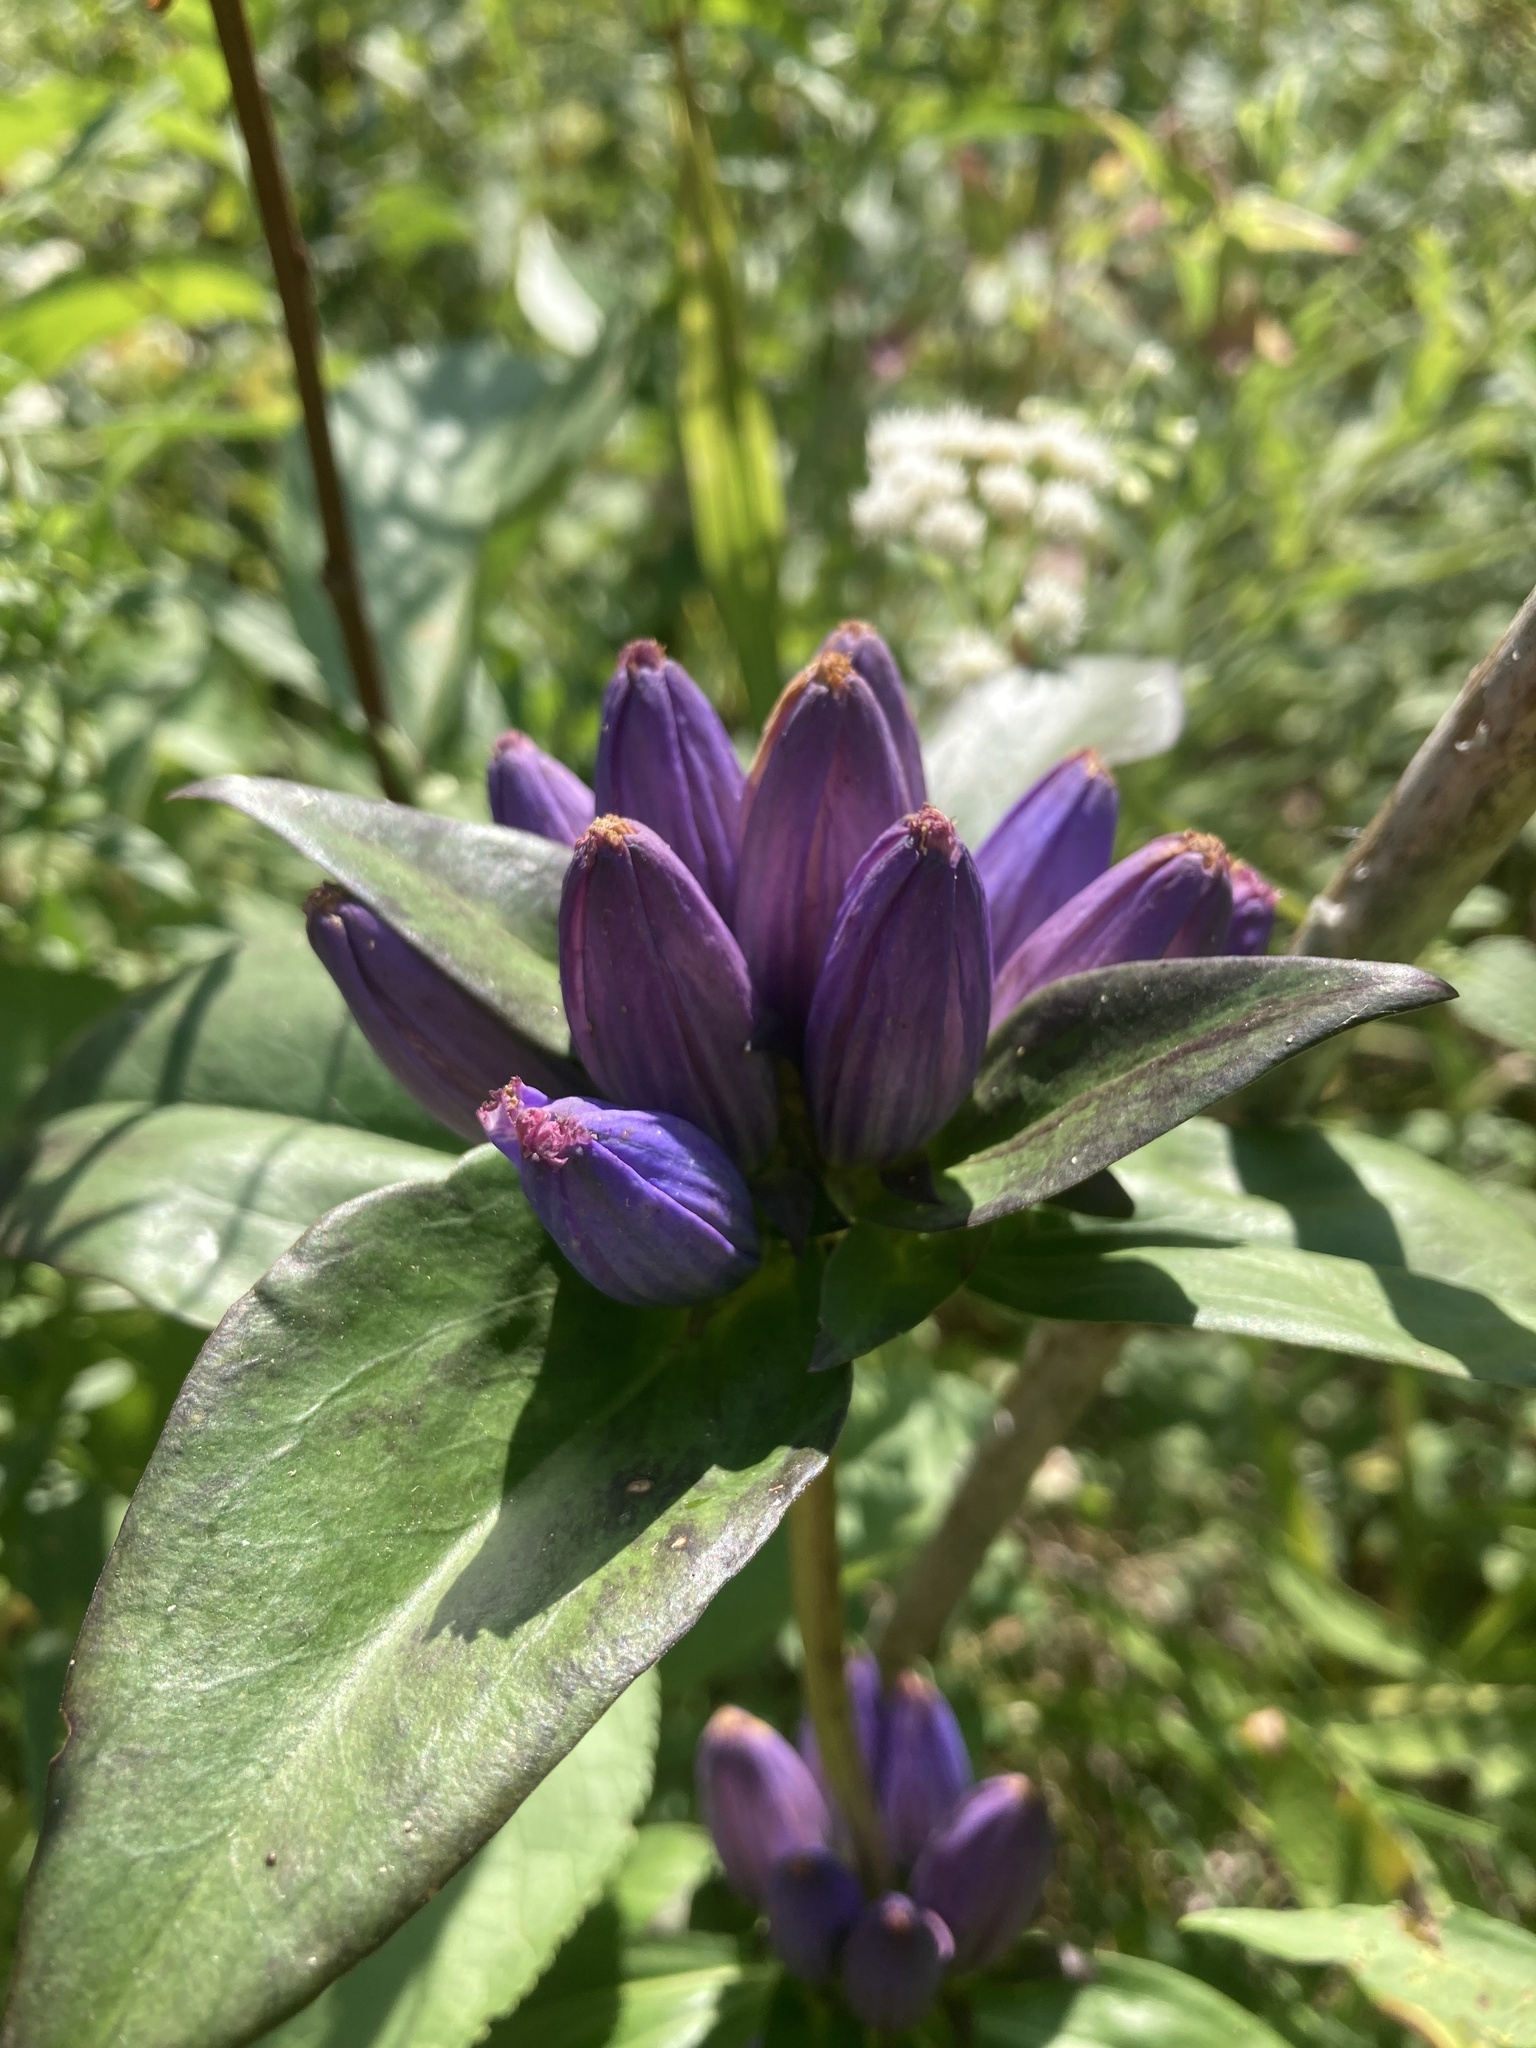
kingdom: Plantae
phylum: Tracheophyta
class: Magnoliopsida
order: Gentianales
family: Gentianaceae
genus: Gentiana
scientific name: Gentiana andrewsii
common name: Bottle gentian
